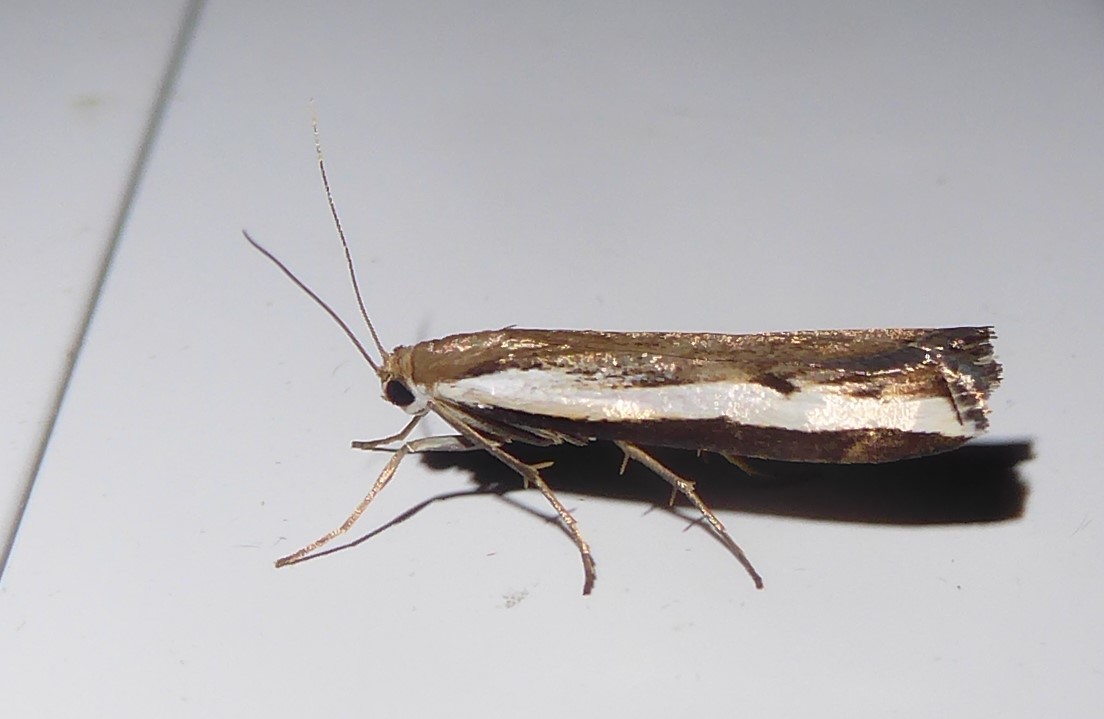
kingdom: Animalia
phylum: Arthropoda
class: Insecta
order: Lepidoptera
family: Crambidae
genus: Orocrambus
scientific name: Orocrambus flexuosellus
